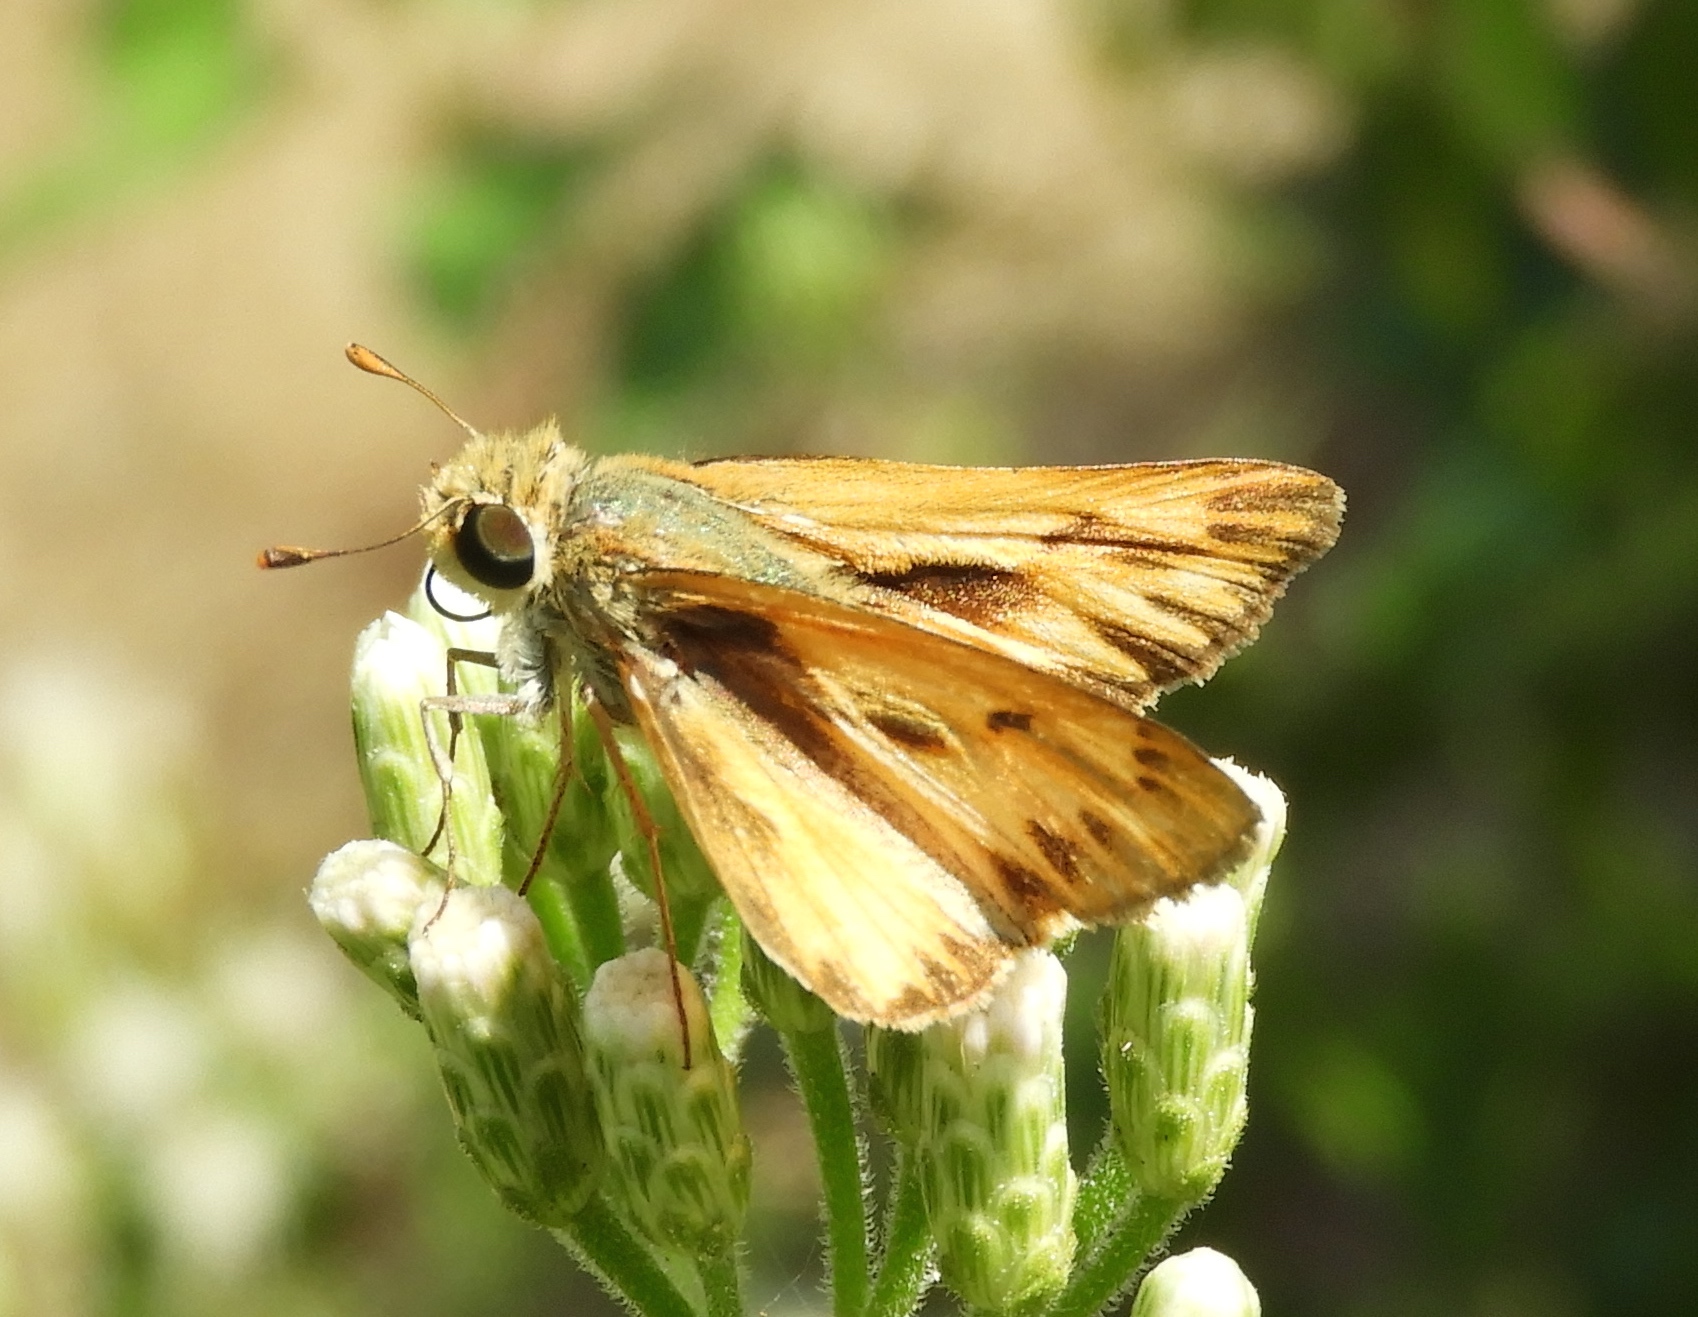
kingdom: Animalia
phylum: Arthropoda
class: Insecta
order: Lepidoptera
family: Hesperiidae
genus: Hylephila
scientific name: Hylephila phyleus
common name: Fiery skipper
